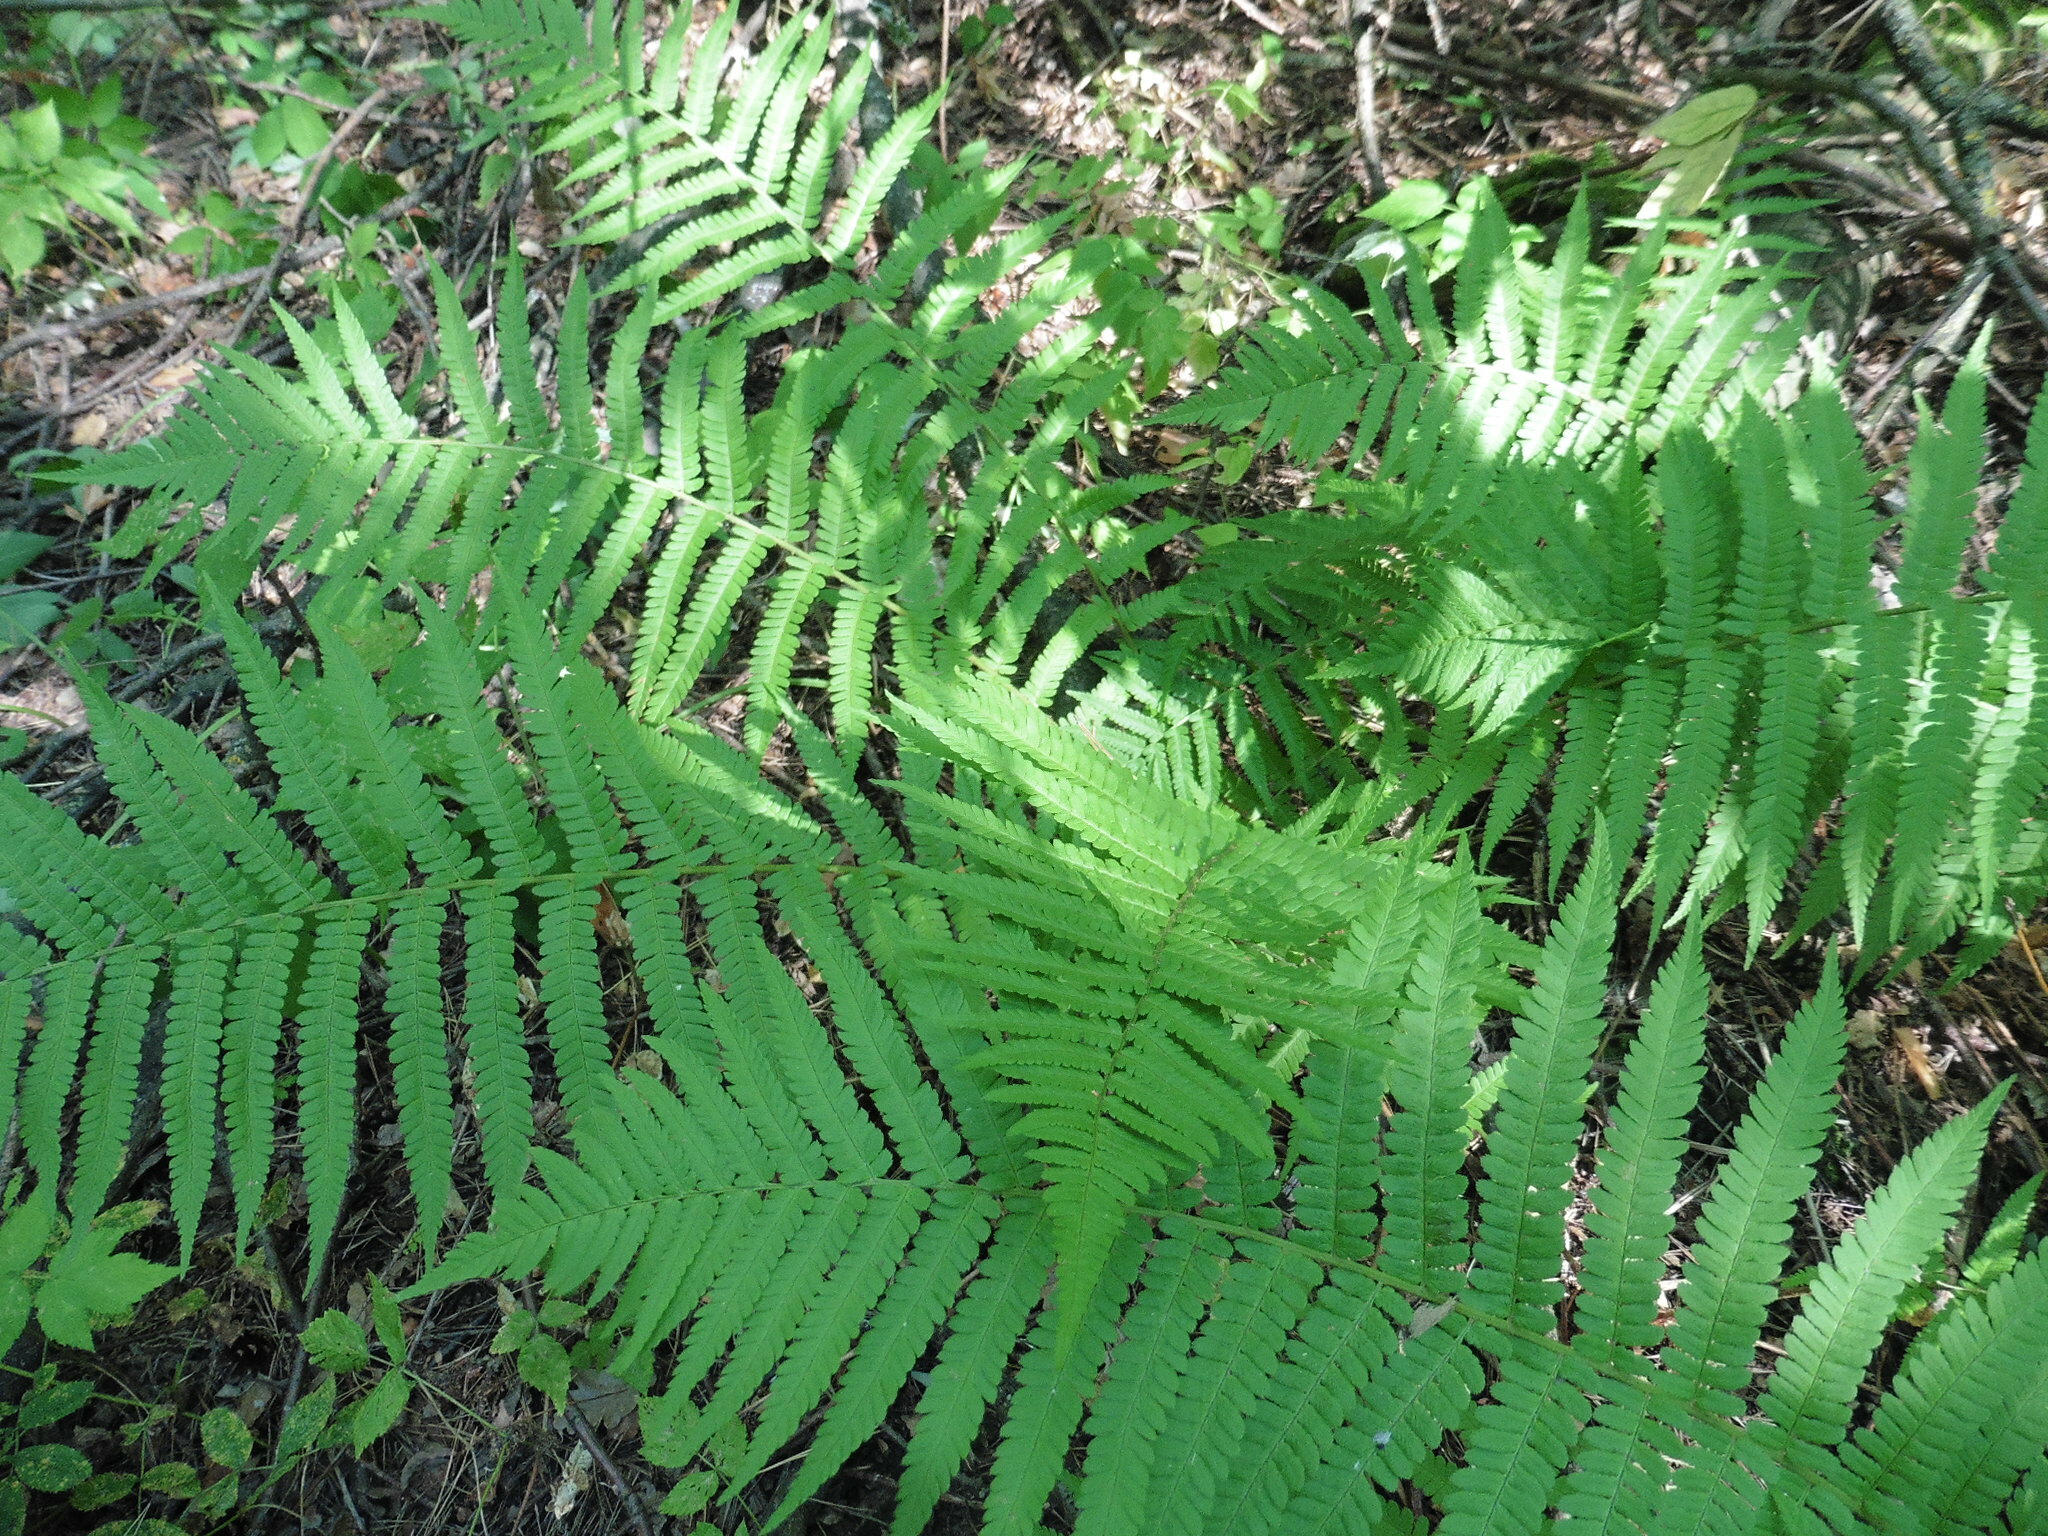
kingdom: Plantae
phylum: Tracheophyta
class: Polypodiopsida
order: Polypodiales
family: Dryopteridaceae
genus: Dryopteris
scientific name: Dryopteris filix-mas
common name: Male fern
